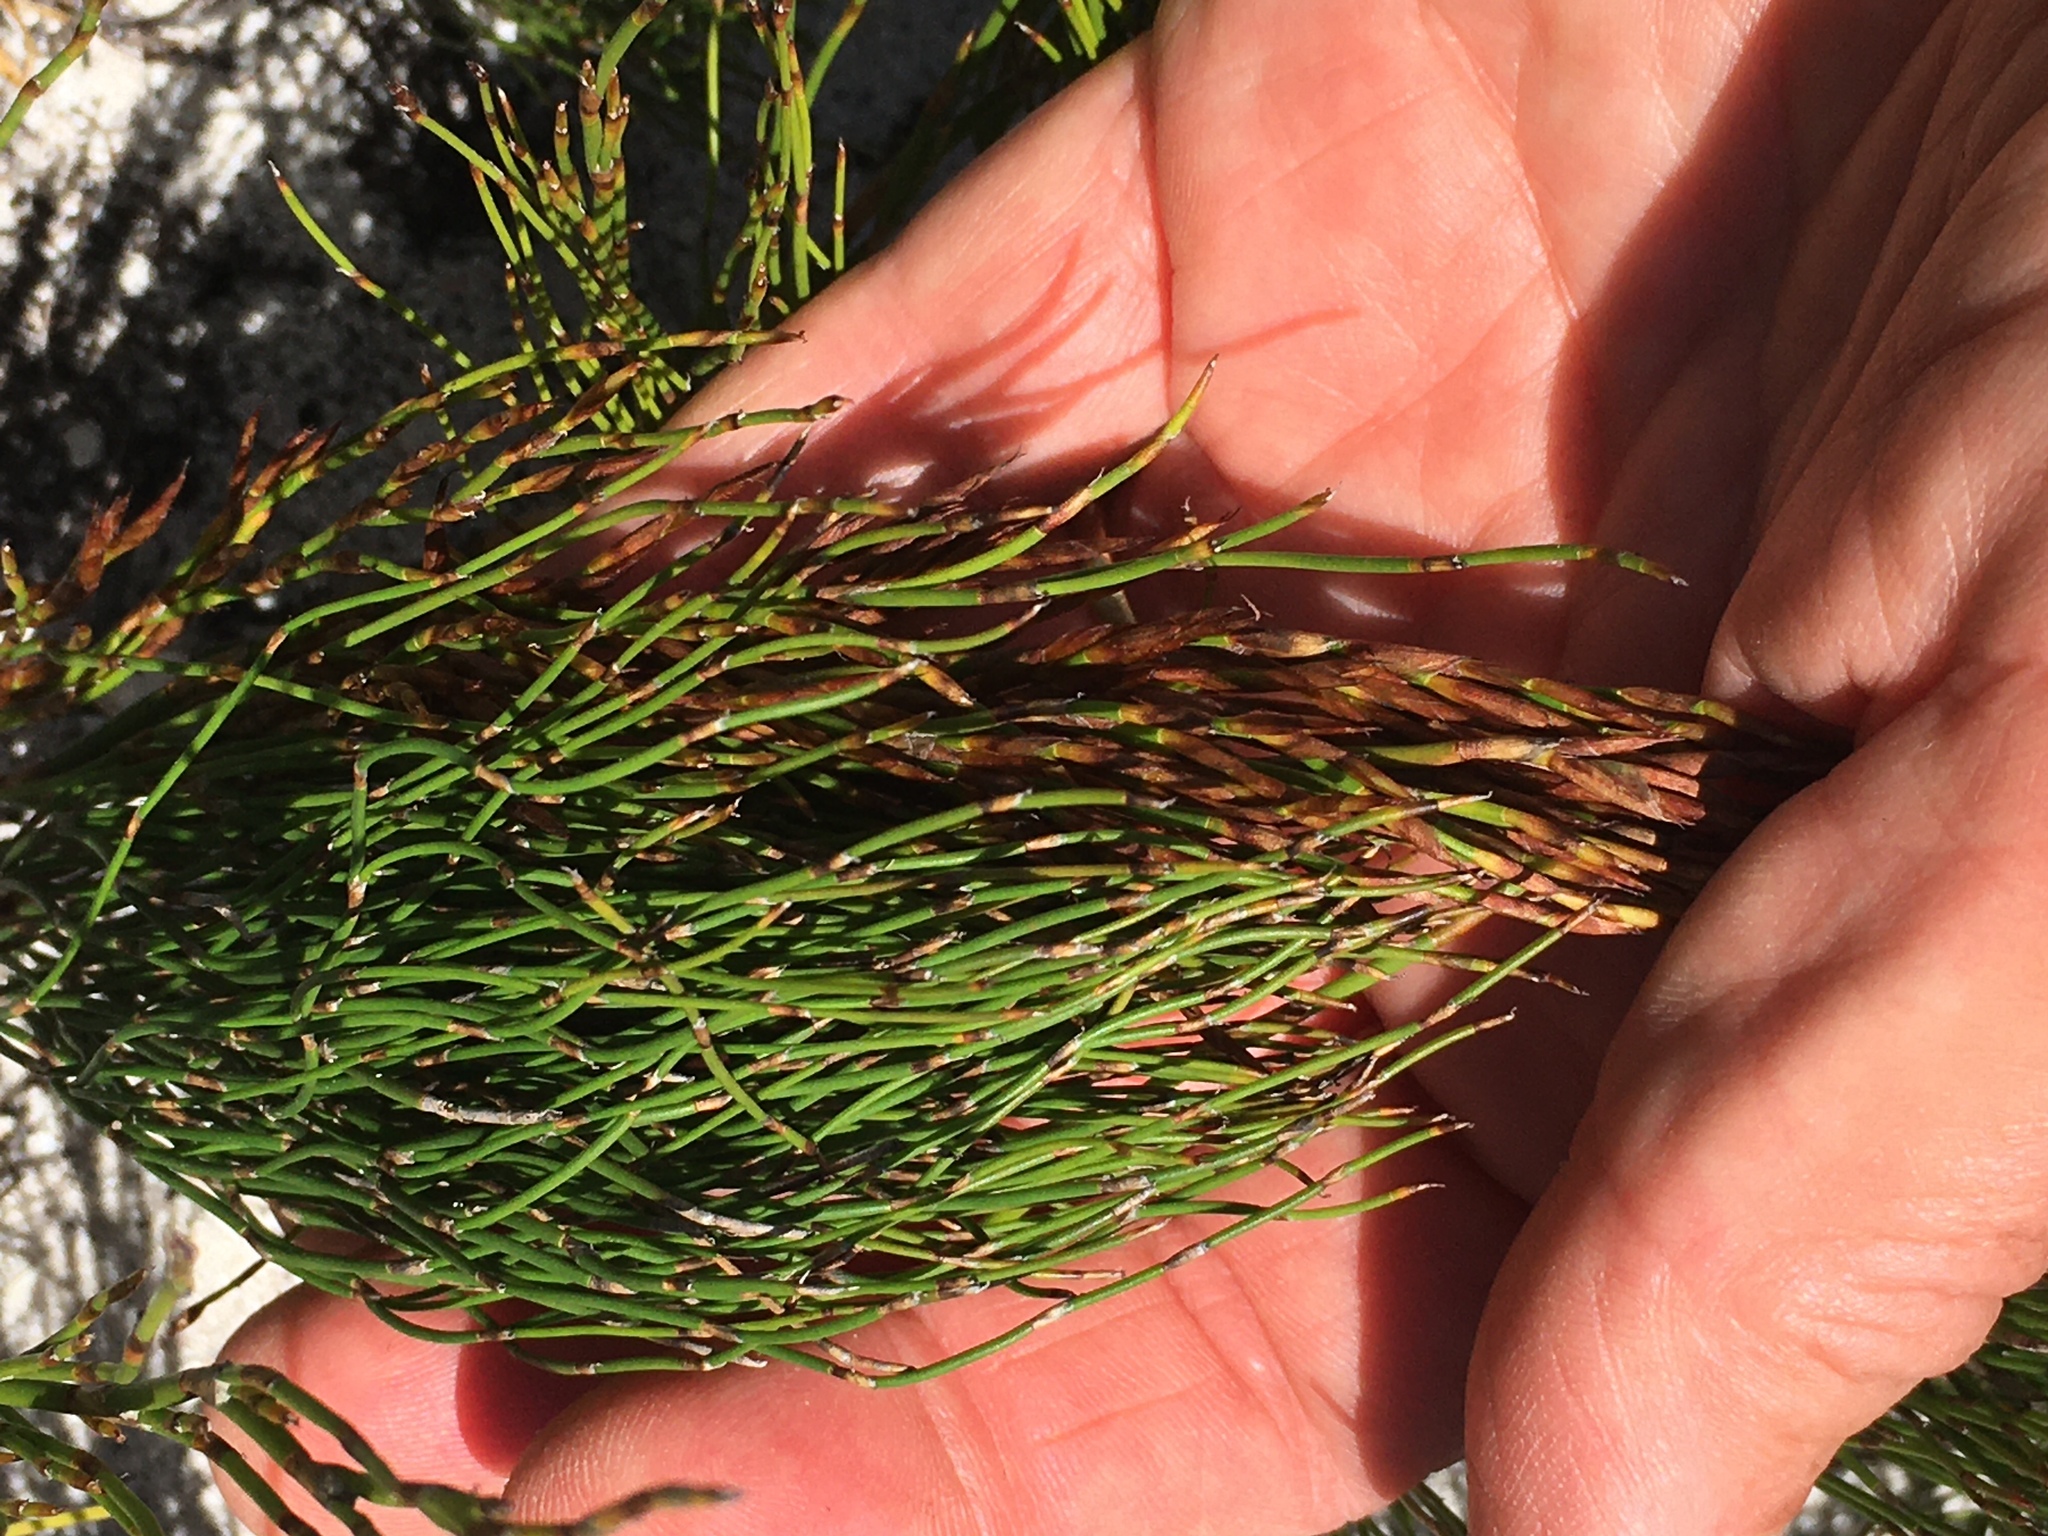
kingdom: Plantae
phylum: Tracheophyta
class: Liliopsida
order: Poales
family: Restionaceae
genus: Restio
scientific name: Restio eleocharis
